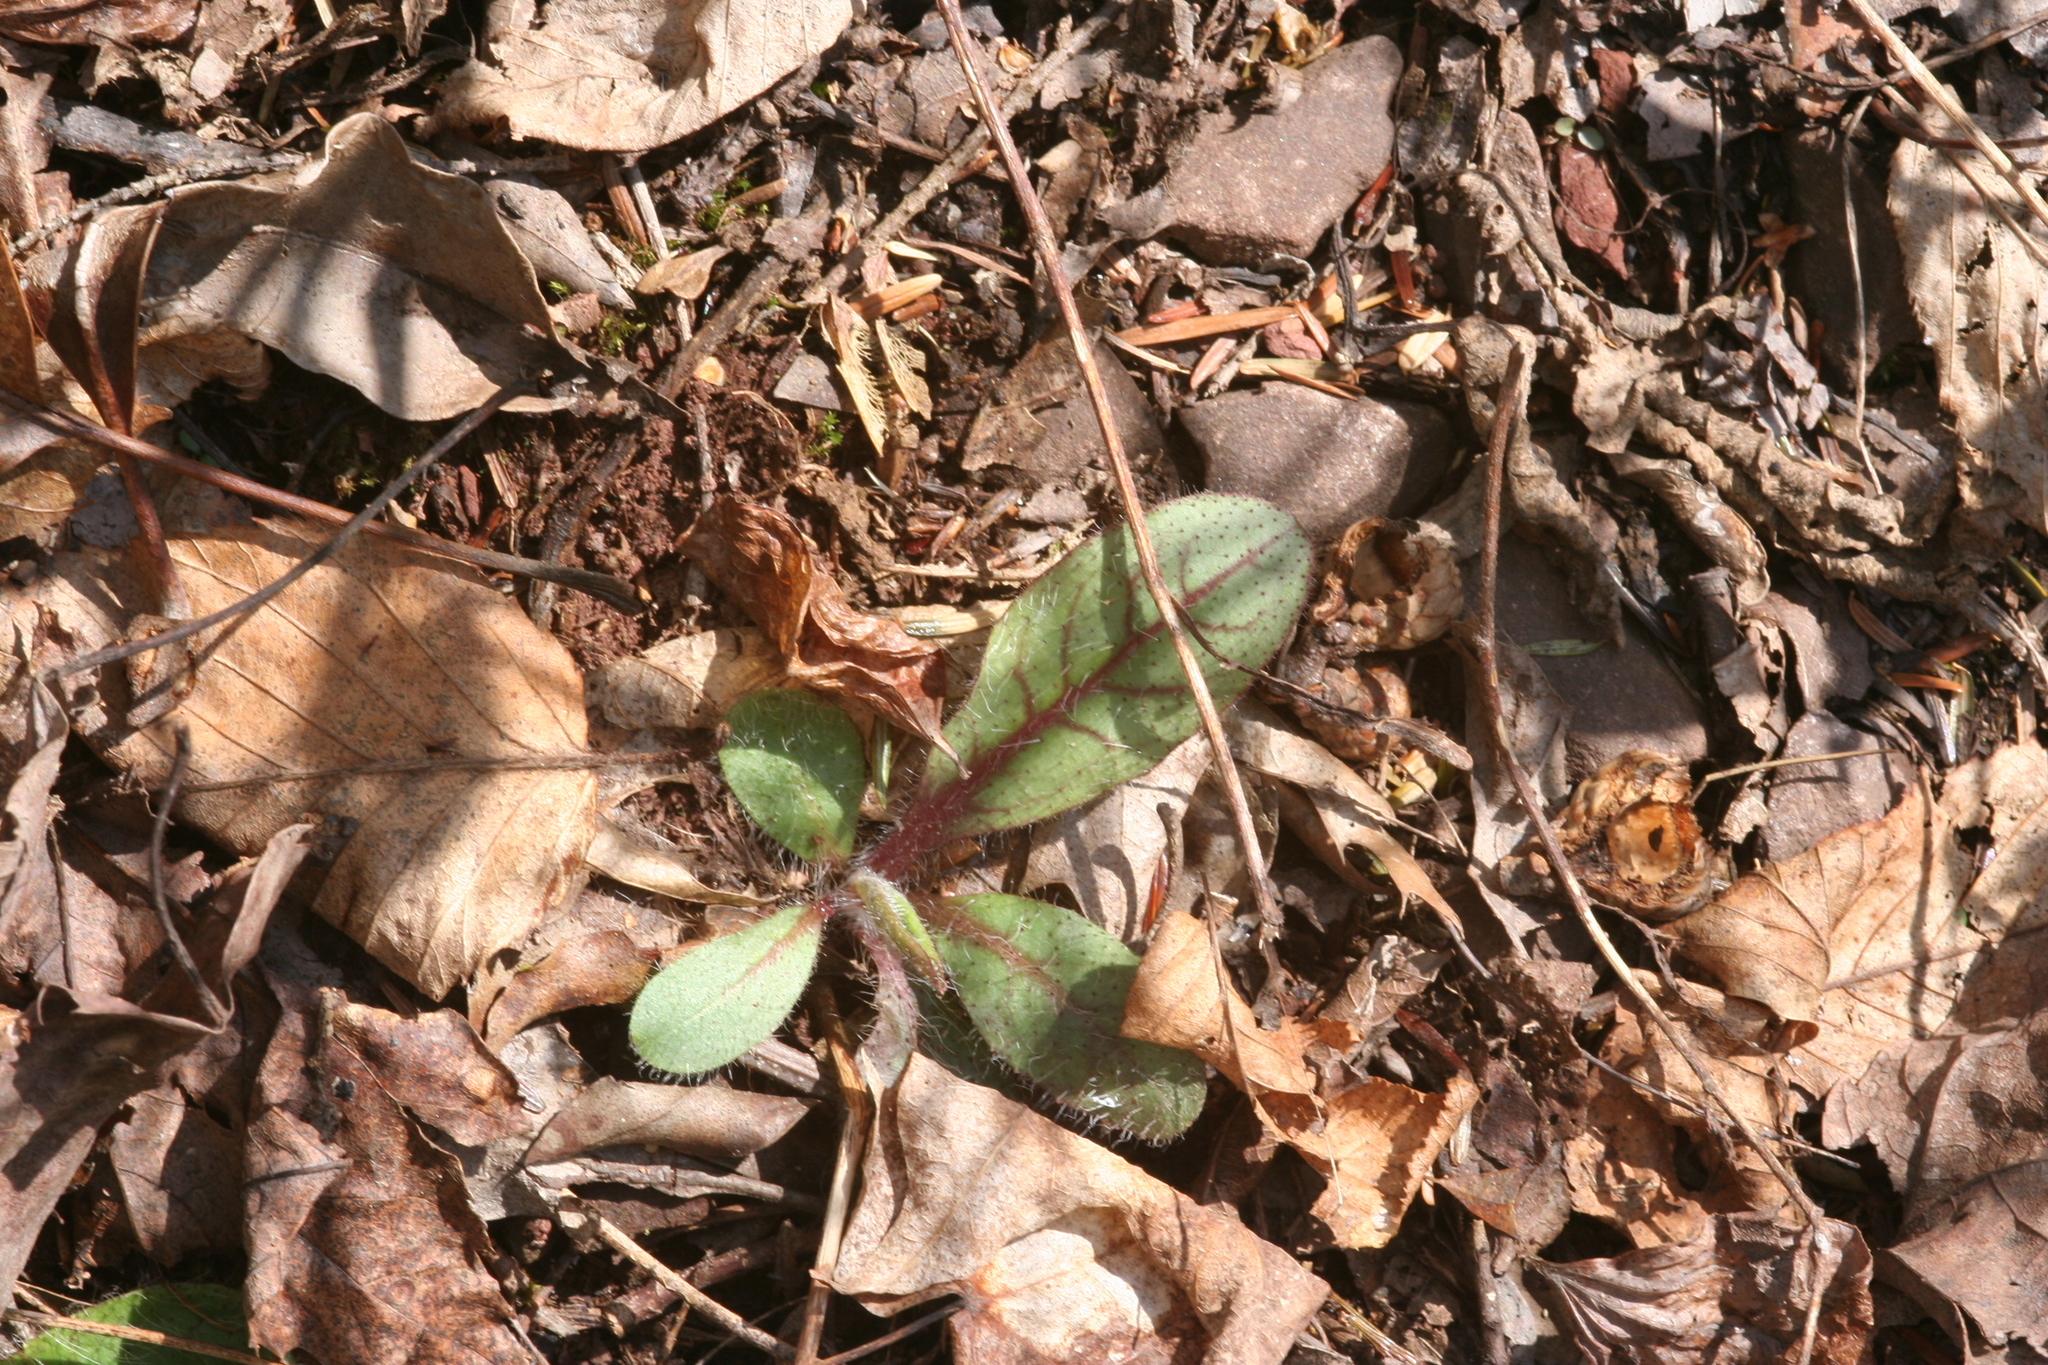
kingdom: Plantae
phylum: Tracheophyta
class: Magnoliopsida
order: Asterales
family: Asteraceae
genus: Hieracium
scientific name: Hieracium venosum
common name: Rattlesnake hawkweed
